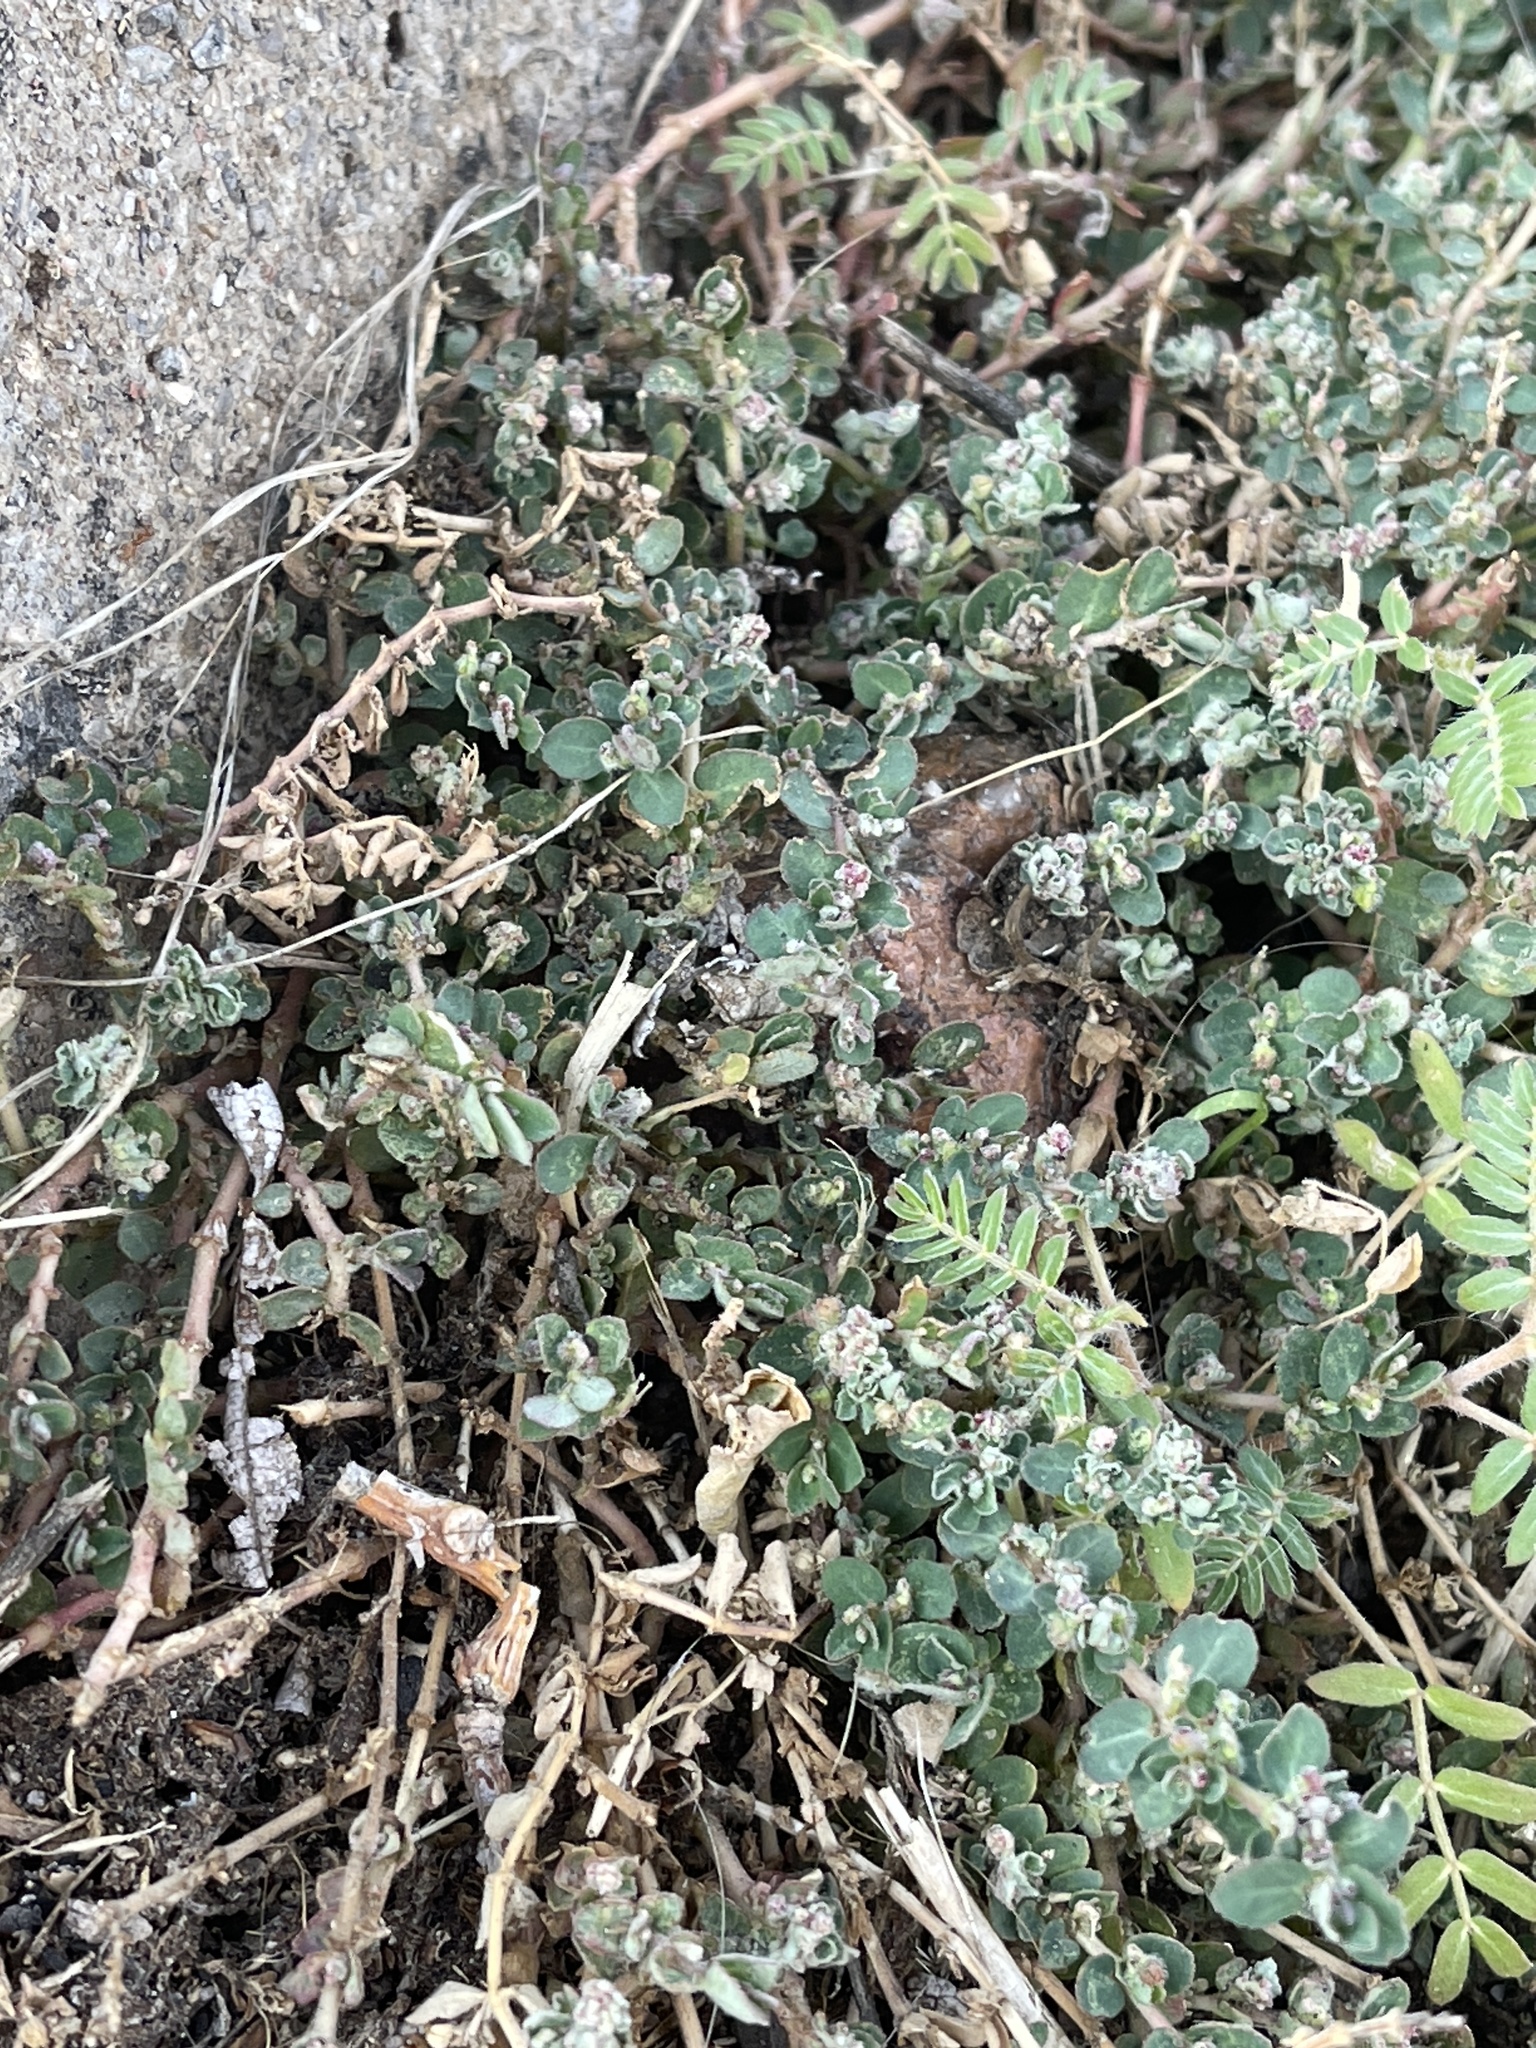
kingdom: Plantae
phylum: Tracheophyta
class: Magnoliopsida
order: Malpighiales
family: Euphorbiaceae
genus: Euphorbia
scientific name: Euphorbia prostrata
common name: Prostrate sandmat
